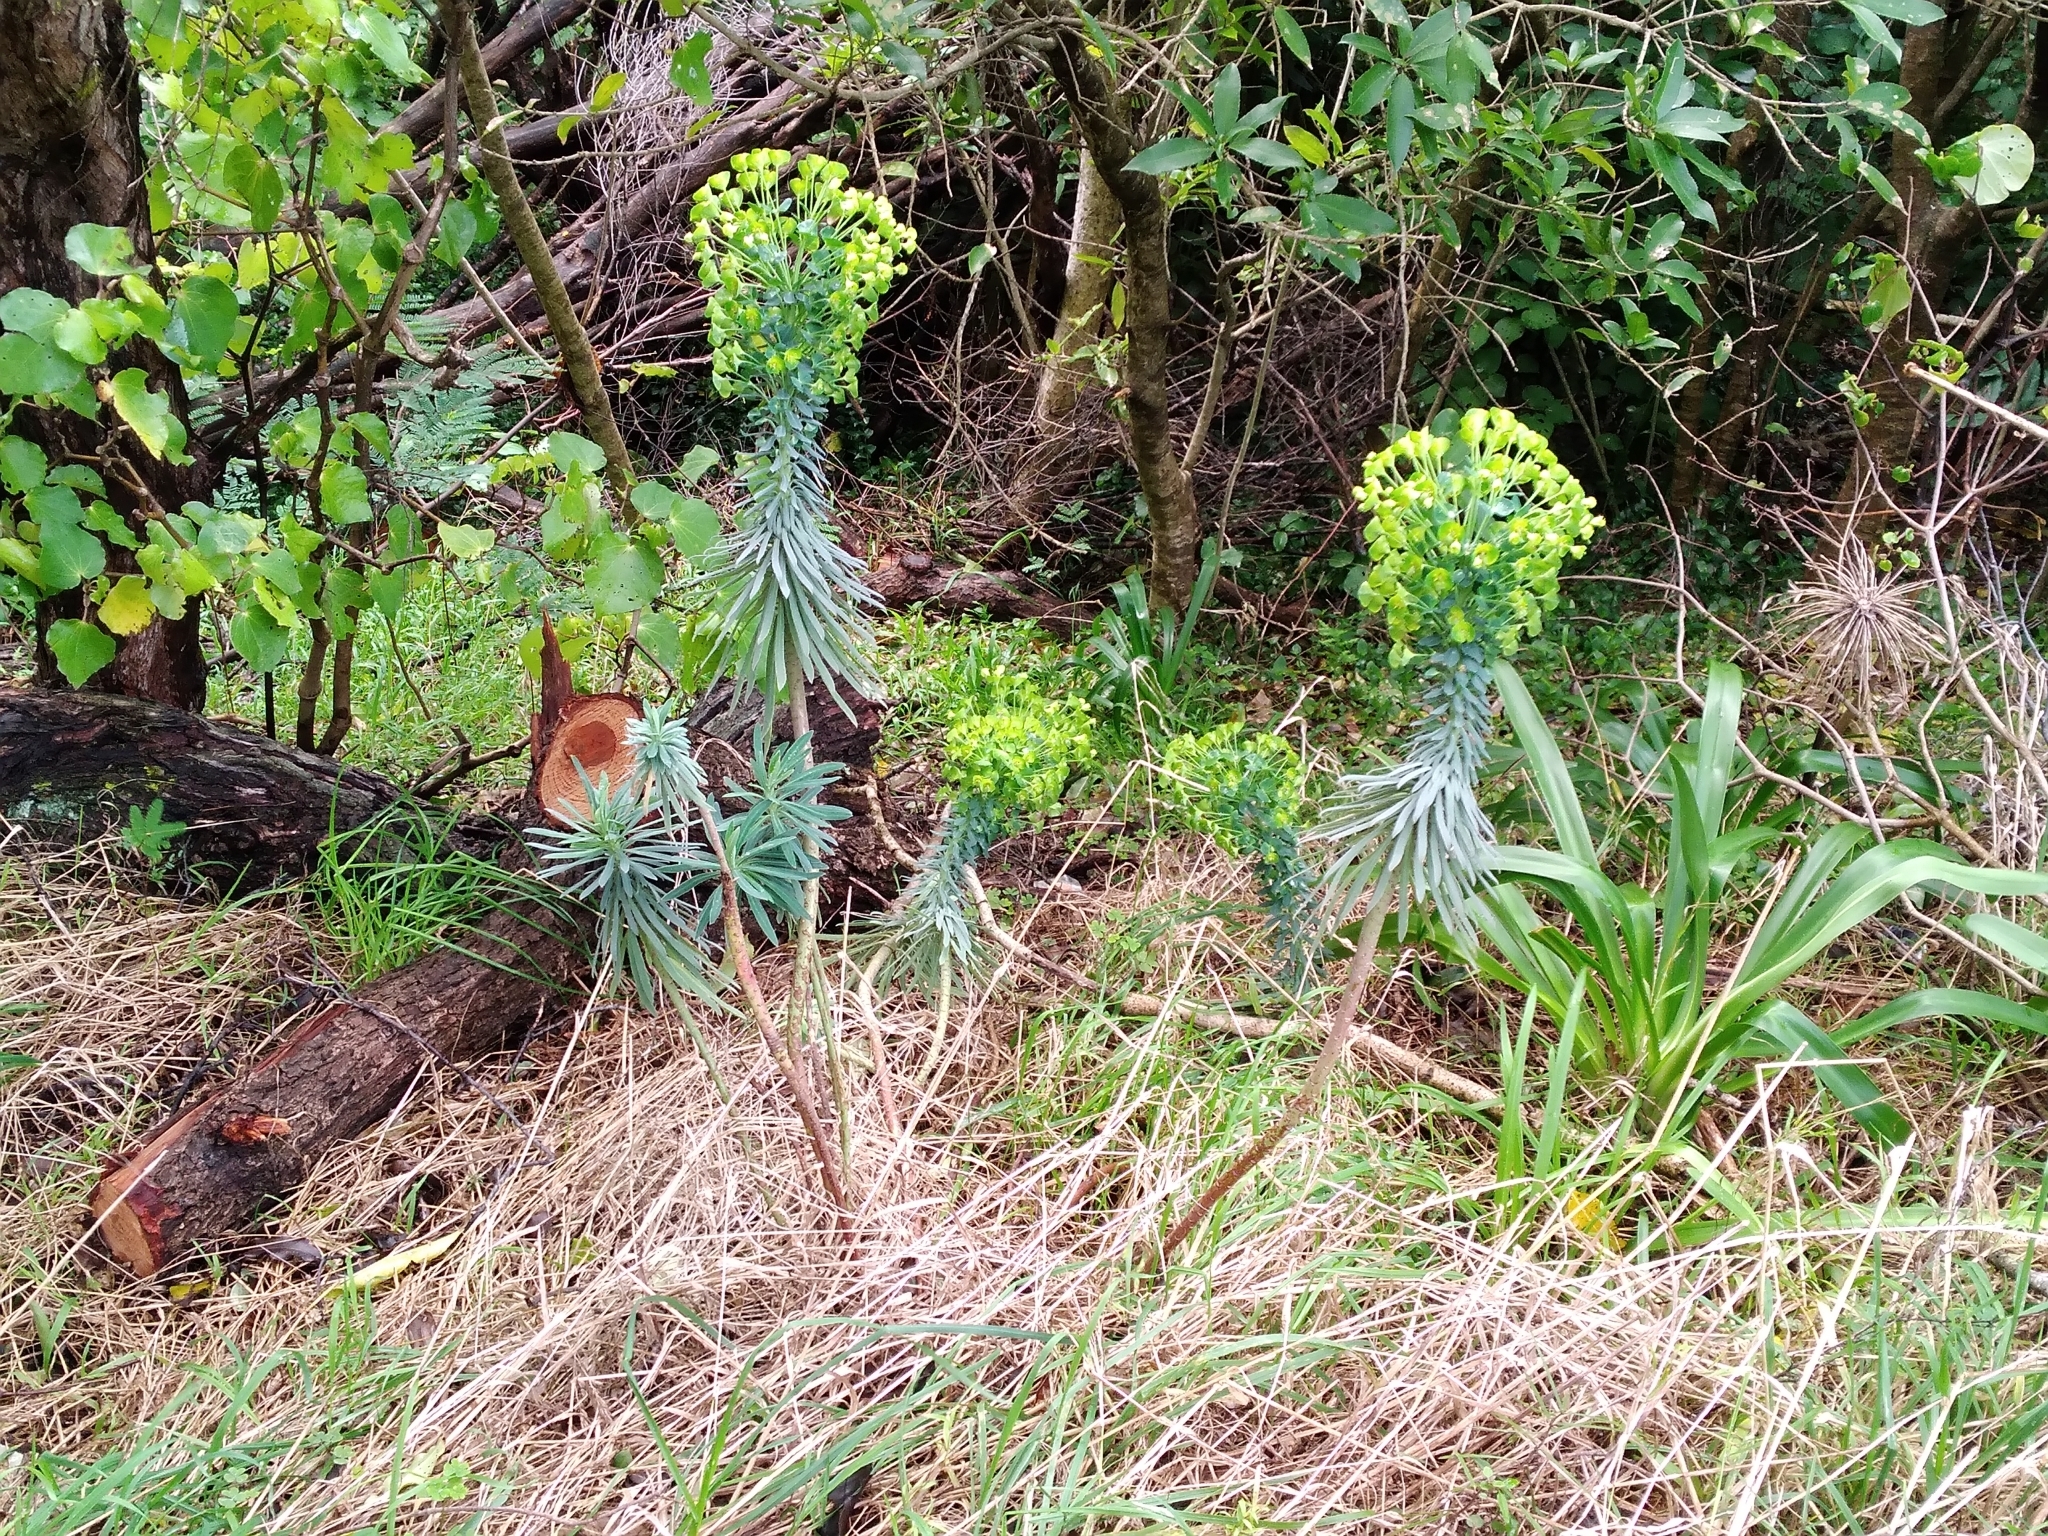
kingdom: Plantae
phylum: Tracheophyta
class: Magnoliopsida
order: Malpighiales
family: Euphorbiaceae
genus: Euphorbia
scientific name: Euphorbia characias
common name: Mediterranean spurge
